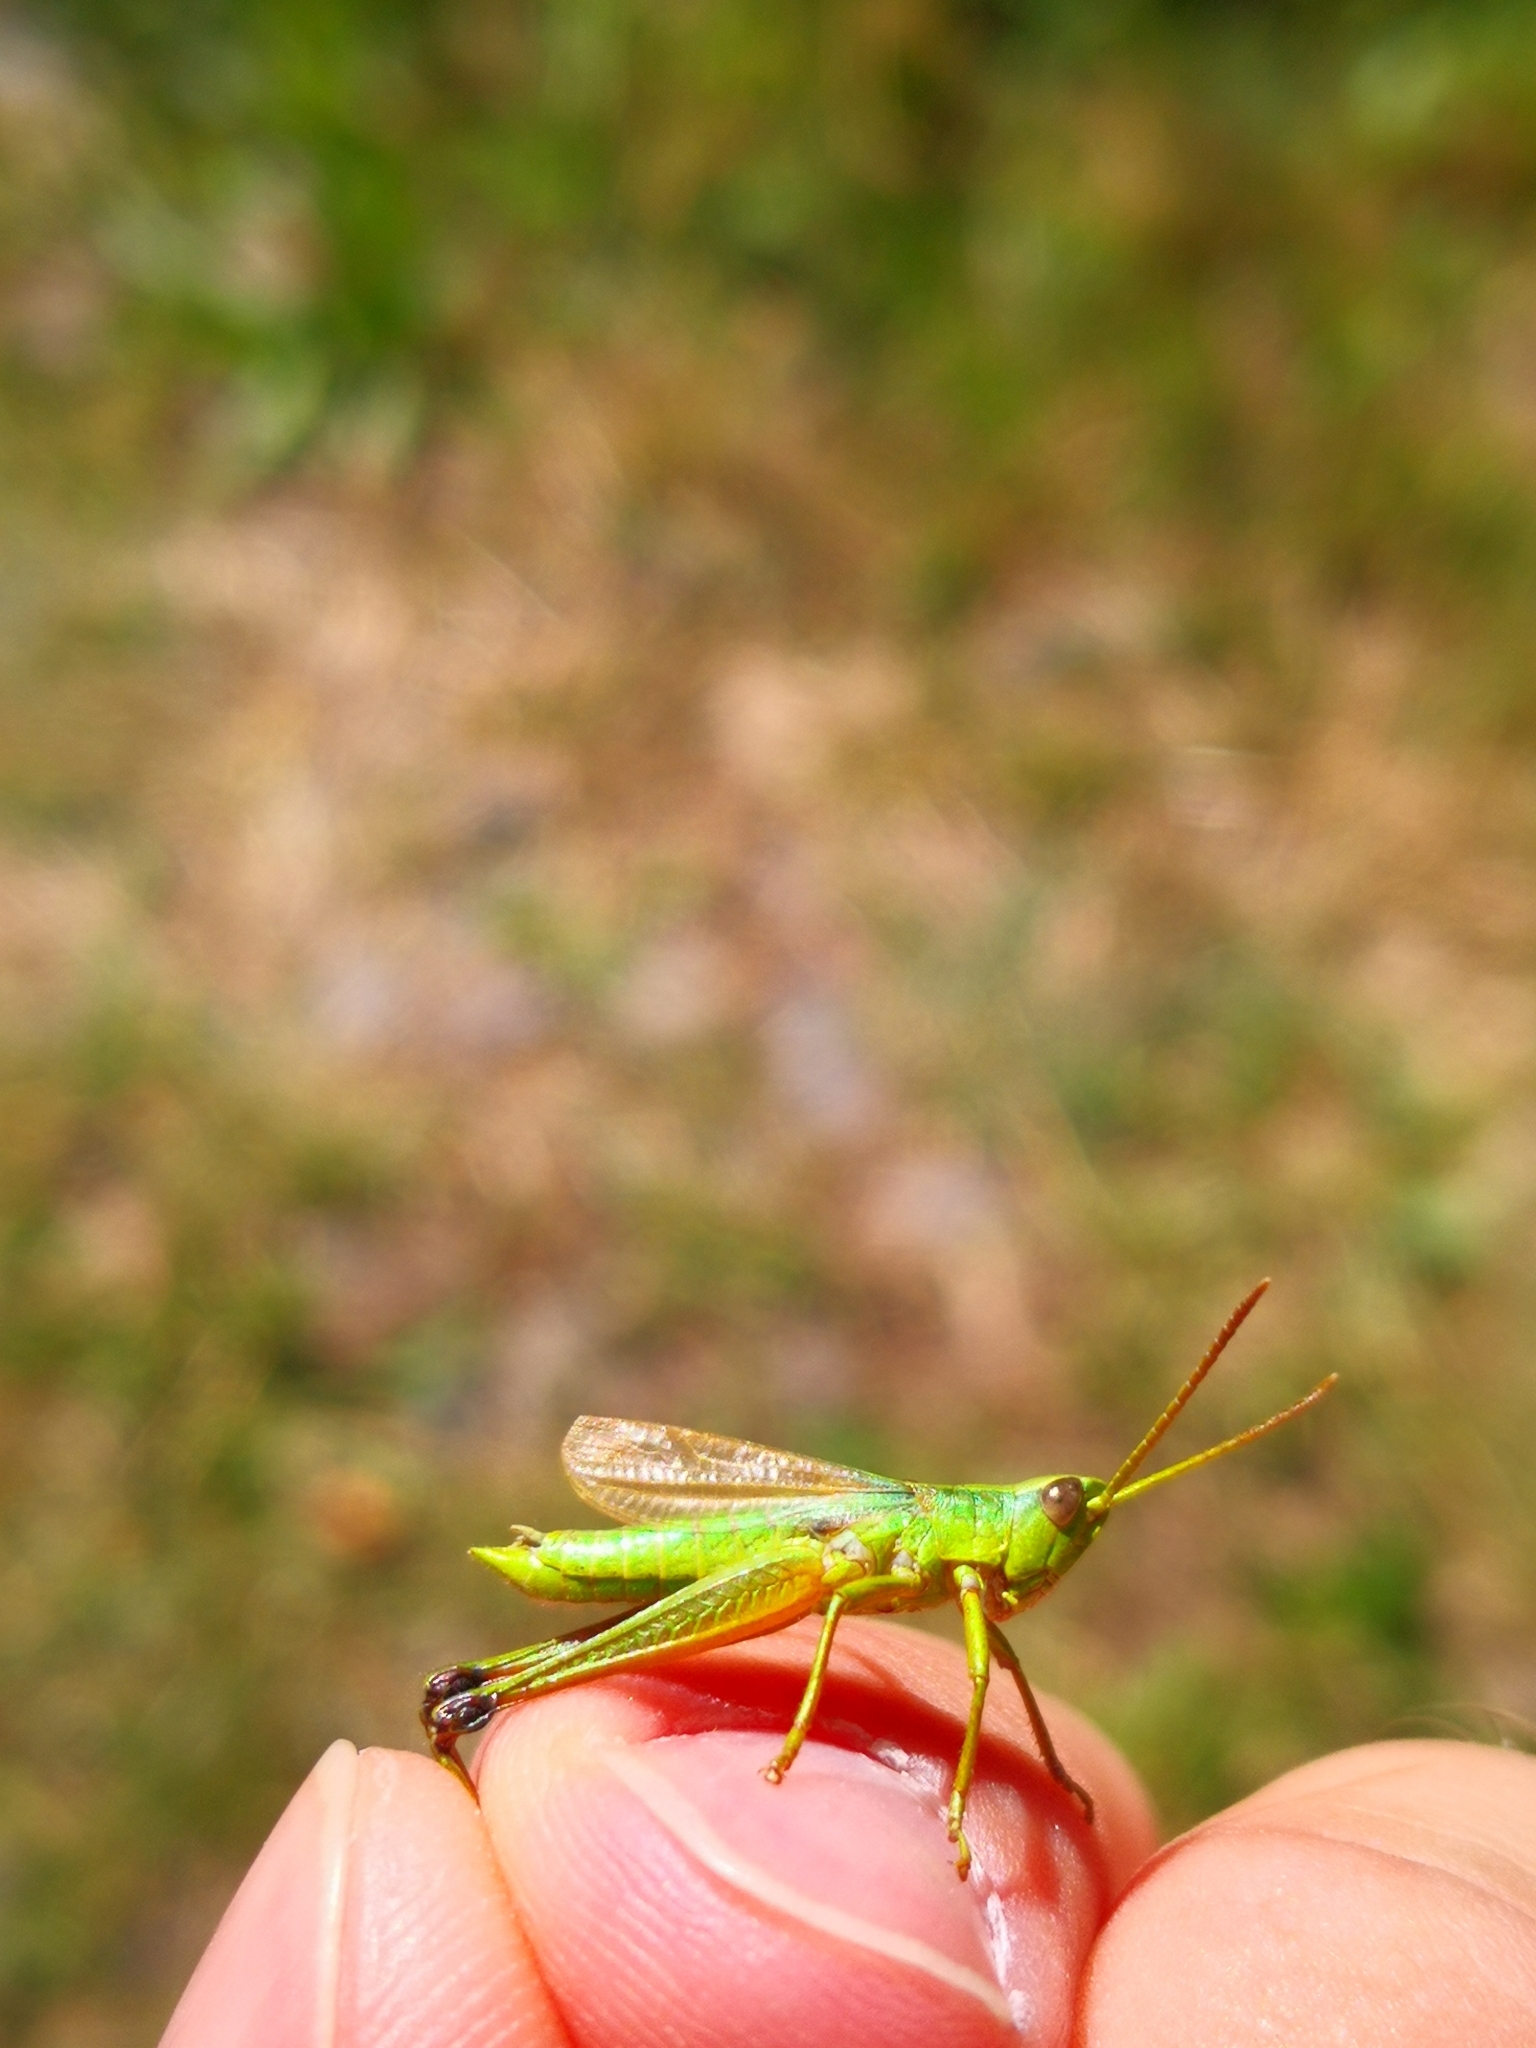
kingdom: Animalia
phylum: Arthropoda
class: Insecta
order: Orthoptera
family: Acrididae
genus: Chrysochraon
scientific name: Chrysochraon dispar
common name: Large gold grasshopper
